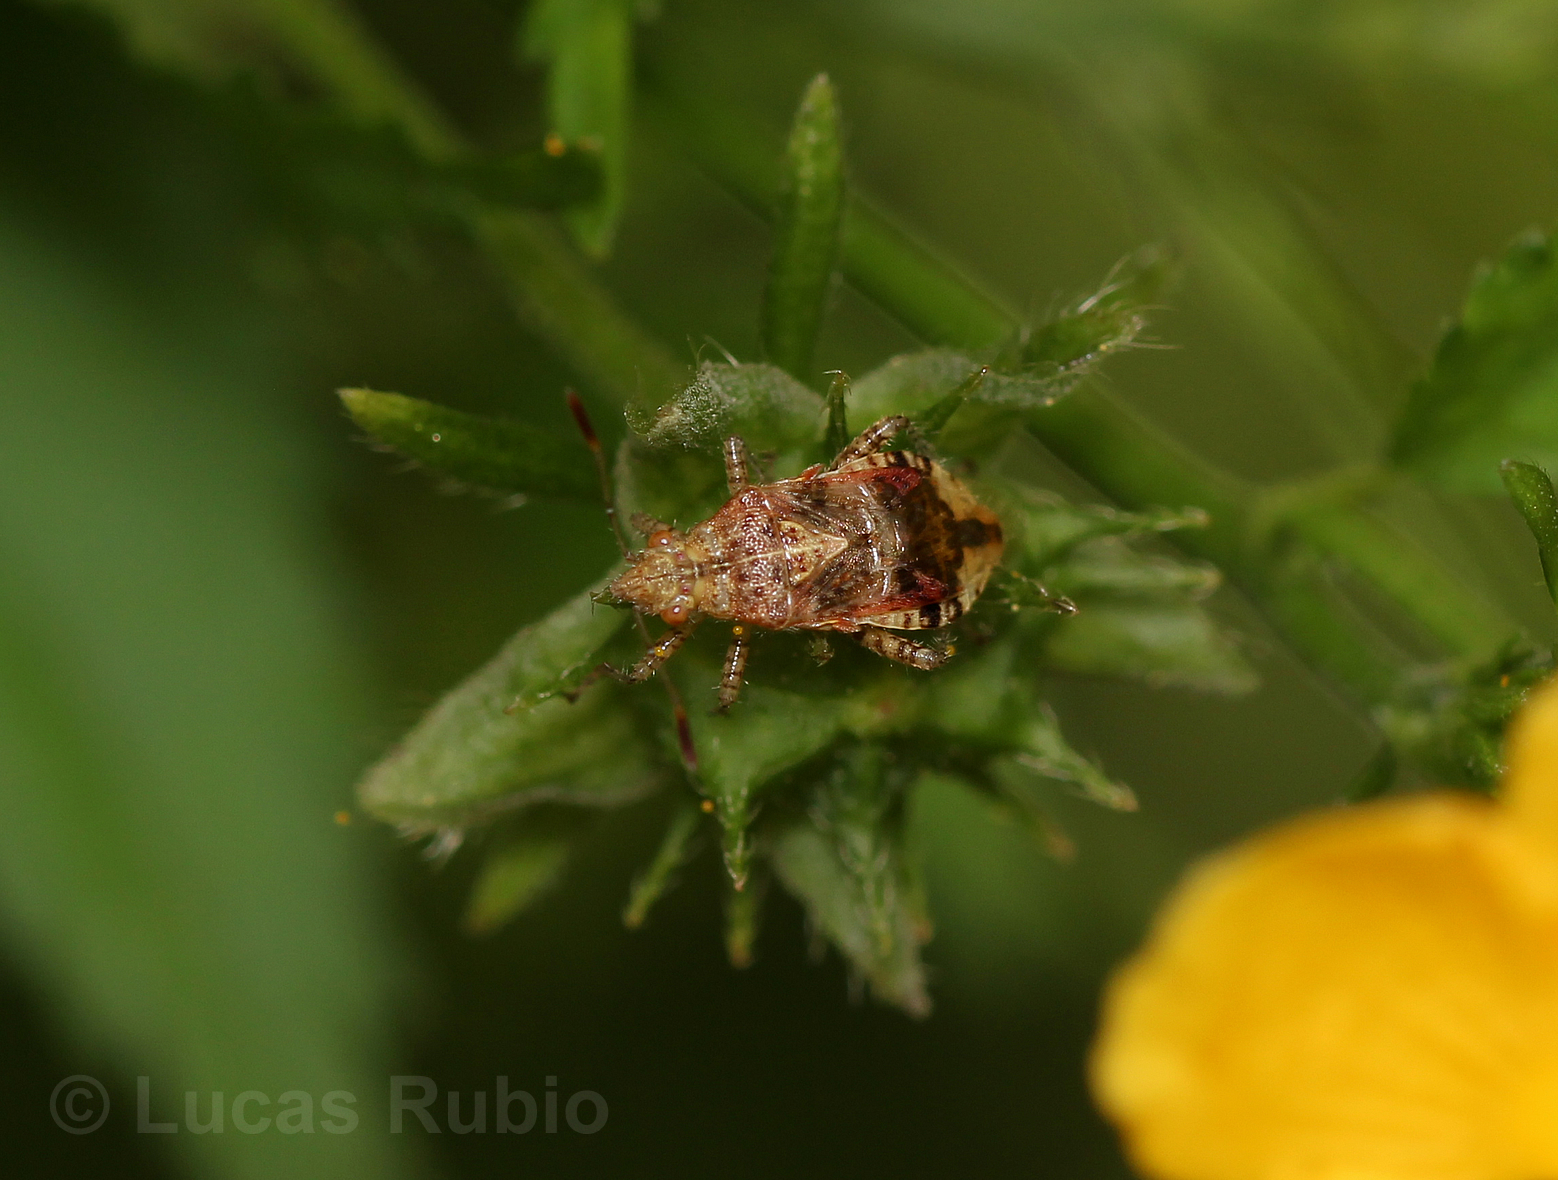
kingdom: Animalia
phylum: Arthropoda
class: Insecta
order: Hemiptera
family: Rhopalidae
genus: Niesthrea
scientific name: Niesthrea
